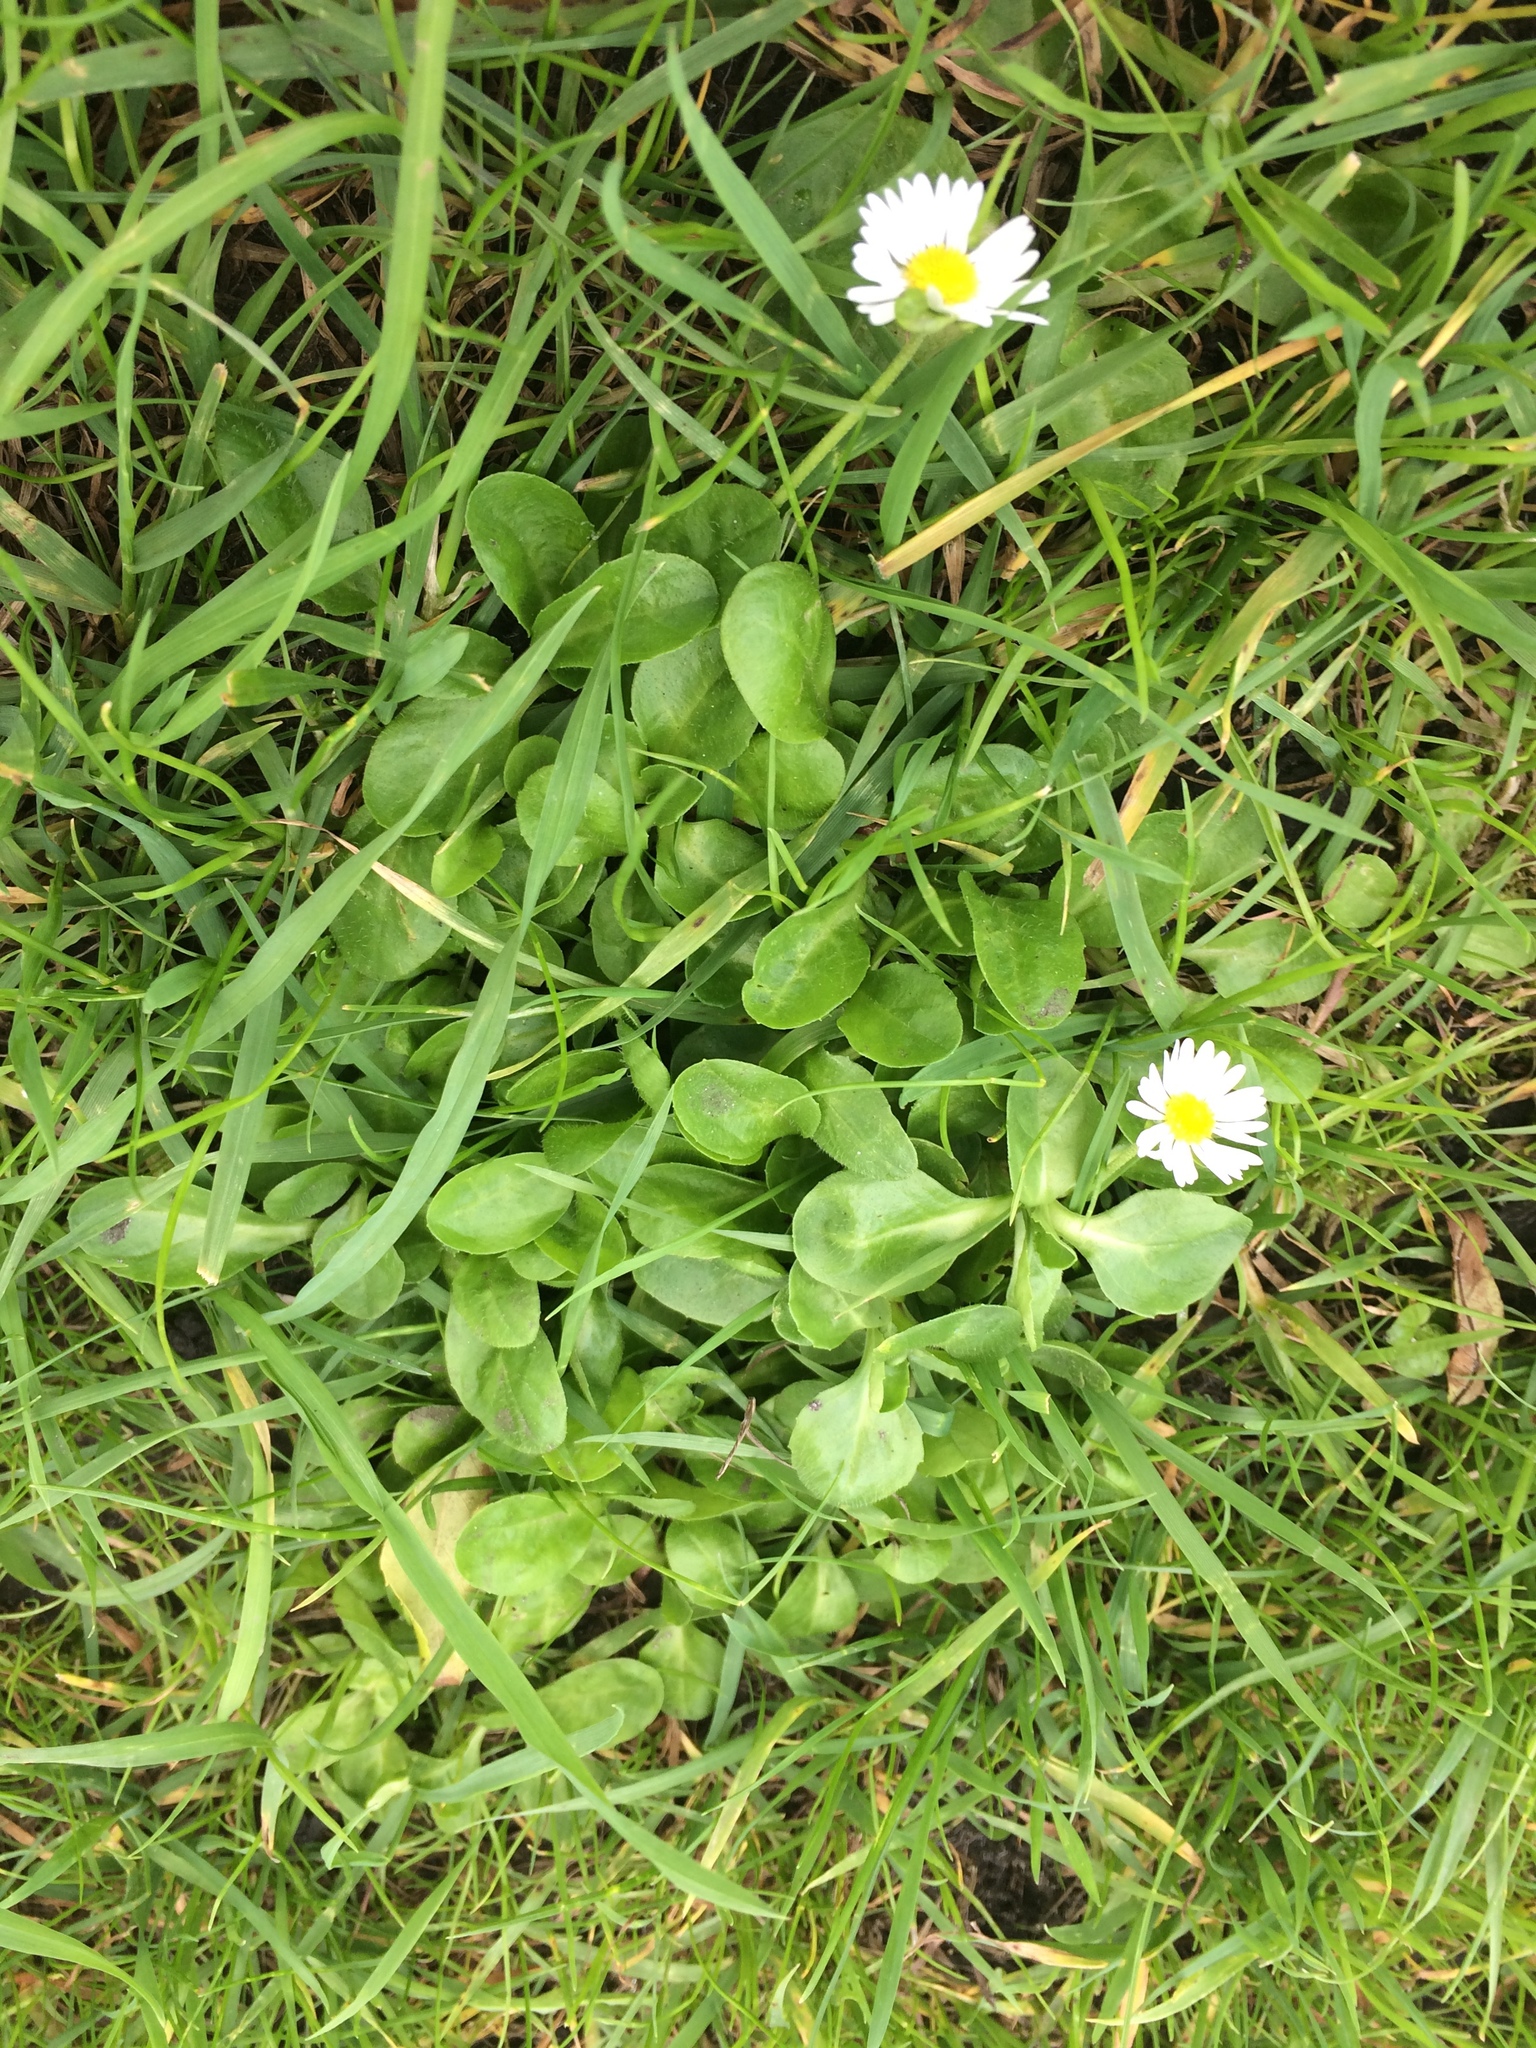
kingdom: Plantae
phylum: Tracheophyta
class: Magnoliopsida
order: Asterales
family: Asteraceae
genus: Bellis
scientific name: Bellis perennis
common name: Lawndaisy
